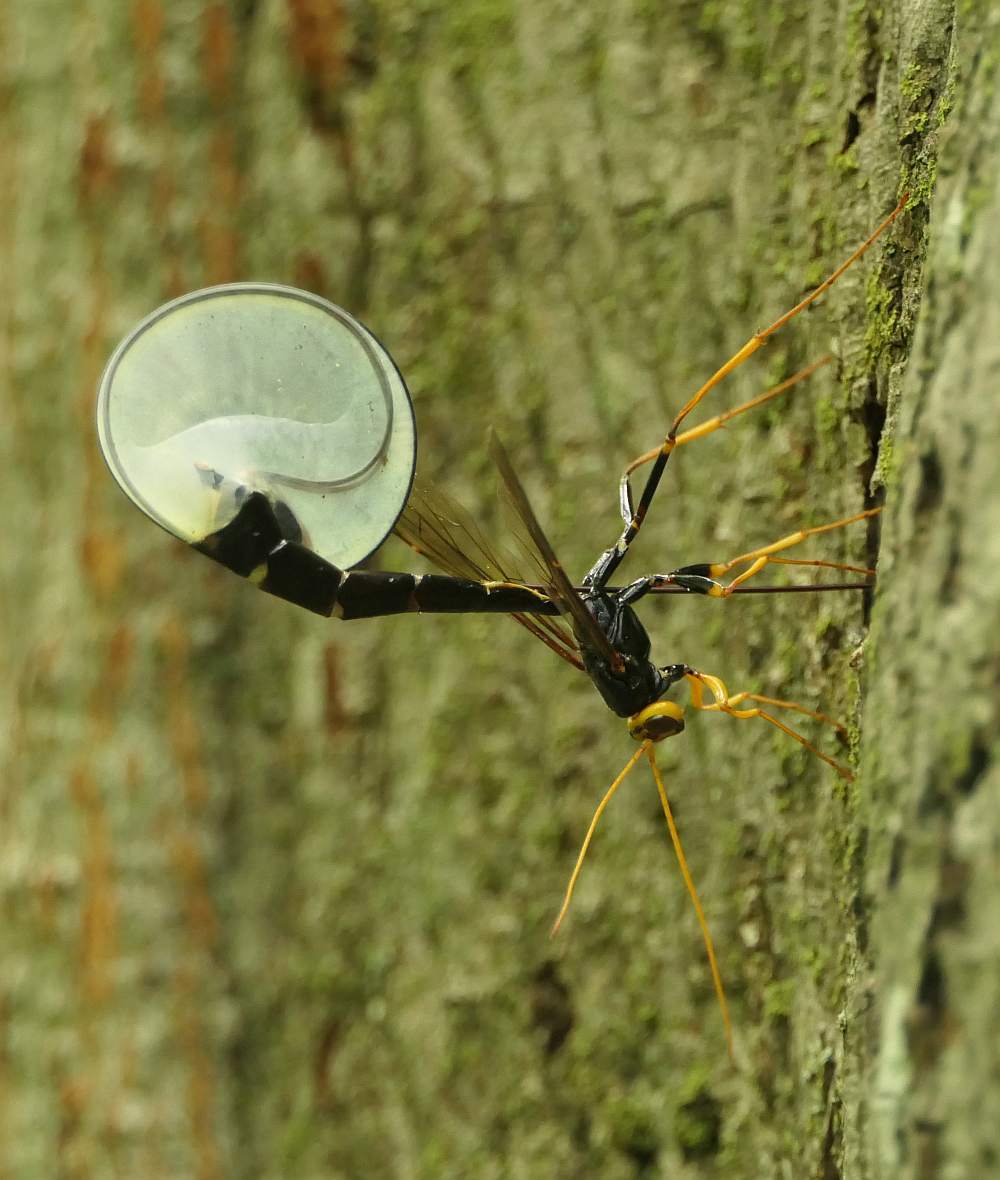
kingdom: Animalia
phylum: Arthropoda
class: Insecta
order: Hymenoptera
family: Ichneumonidae
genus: Megarhyssa
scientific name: Megarhyssa atrata
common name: Black giant ichneumonid wasp
